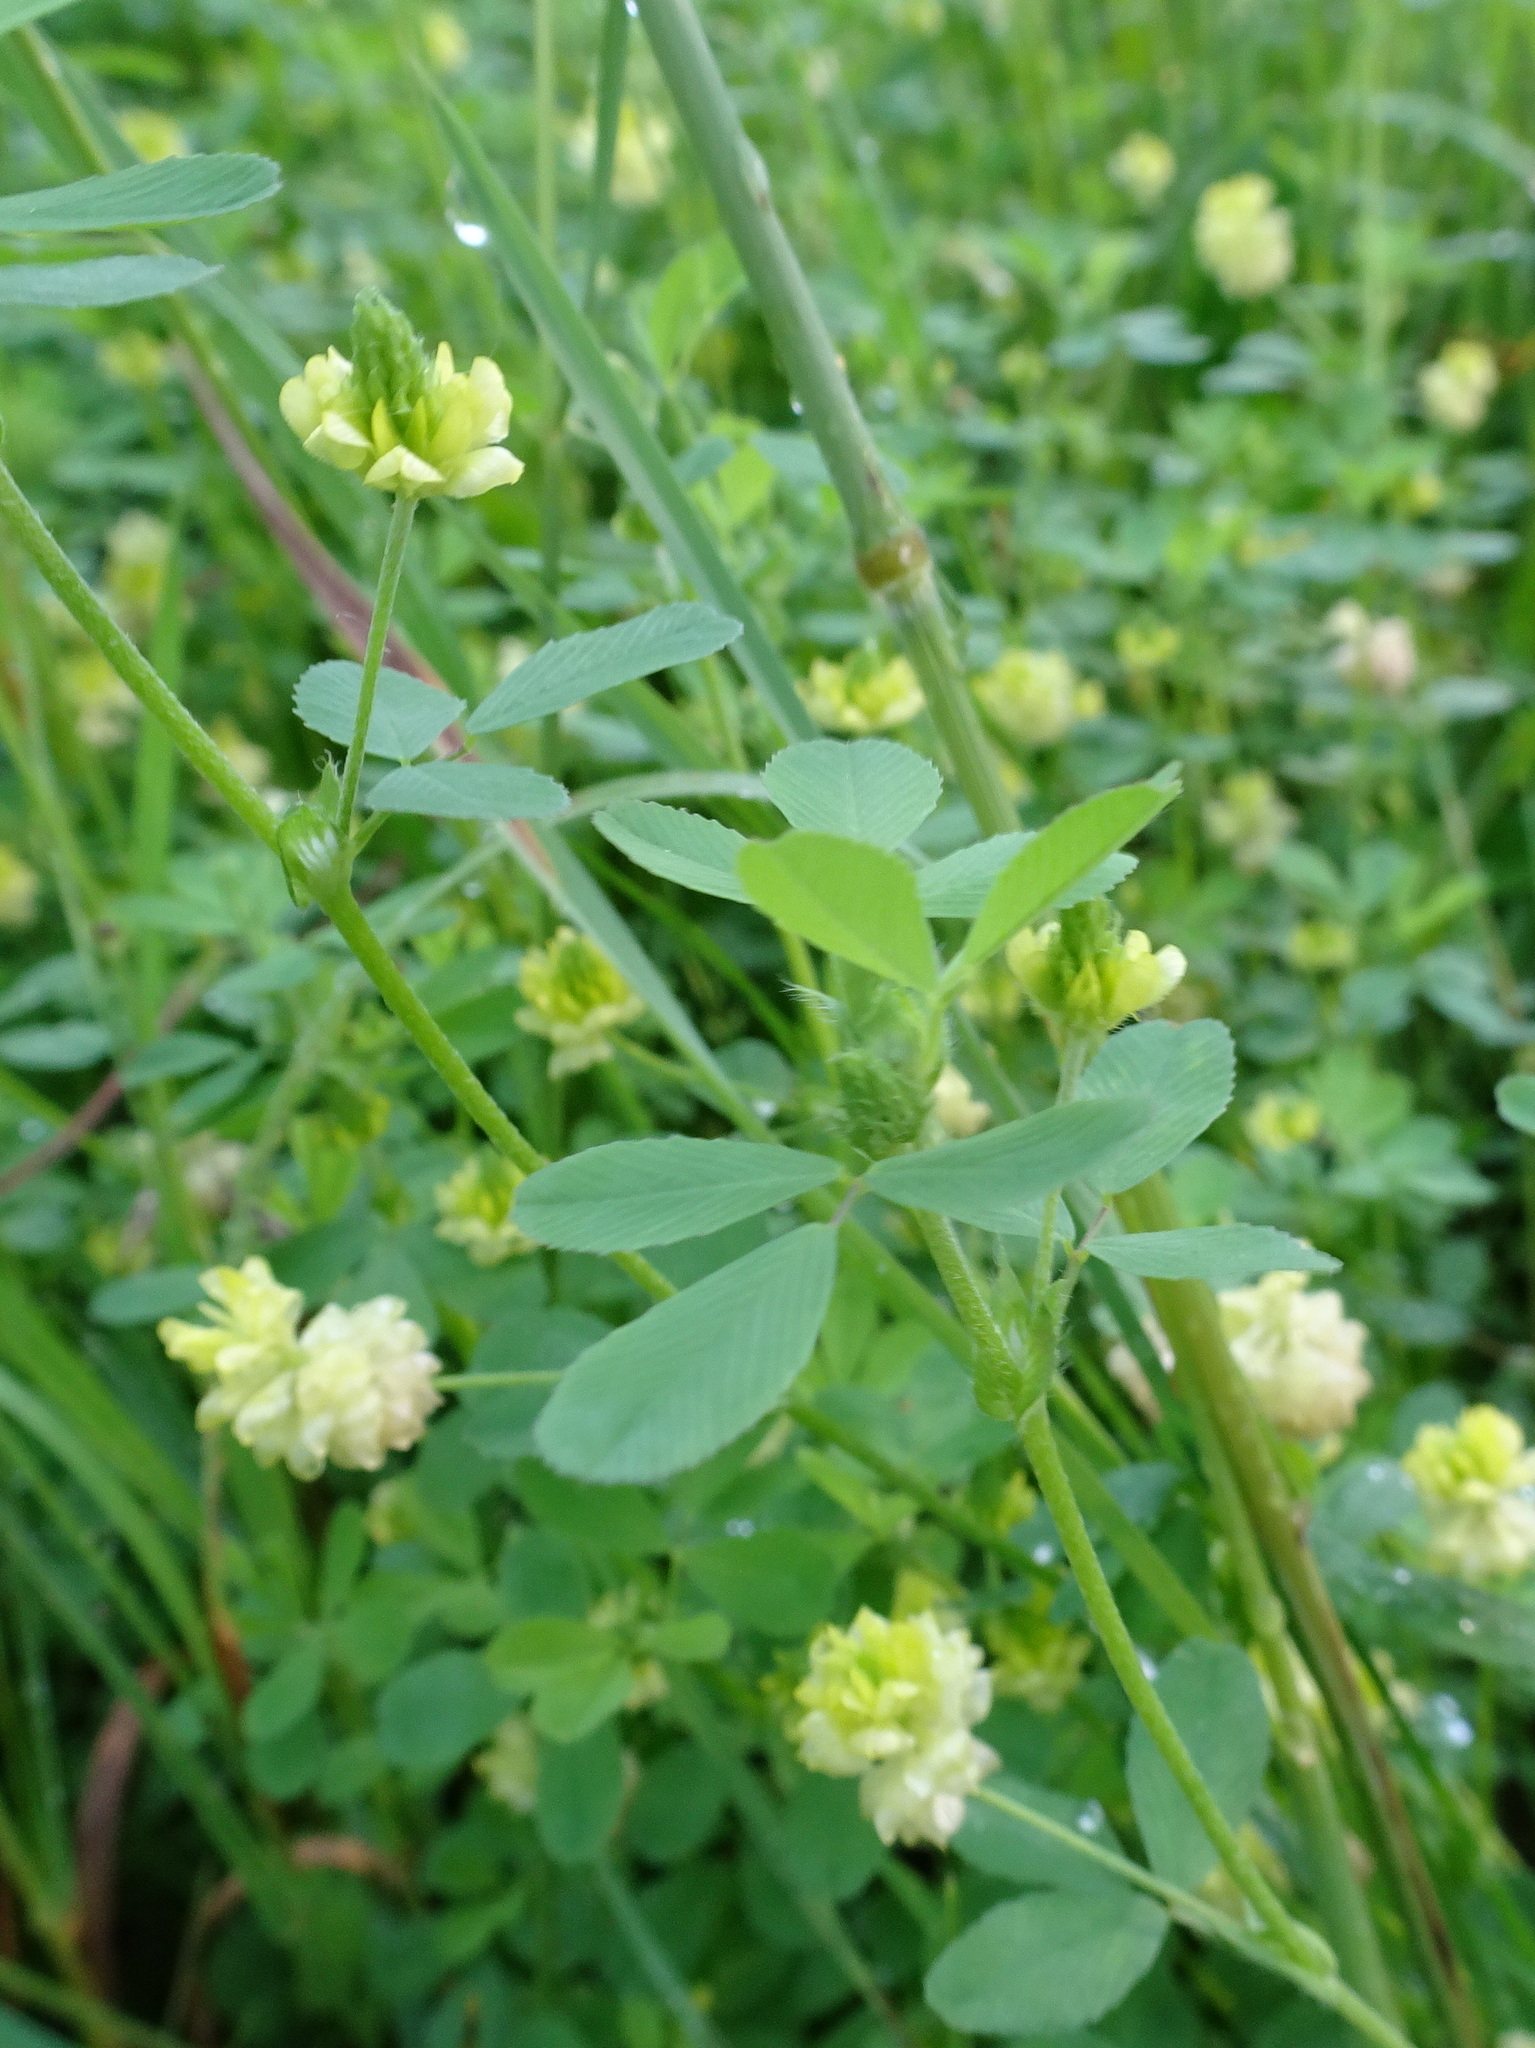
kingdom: Plantae
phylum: Tracheophyta
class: Magnoliopsida
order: Fabales
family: Fabaceae
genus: Trifolium
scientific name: Trifolium campestre
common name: Field clover
